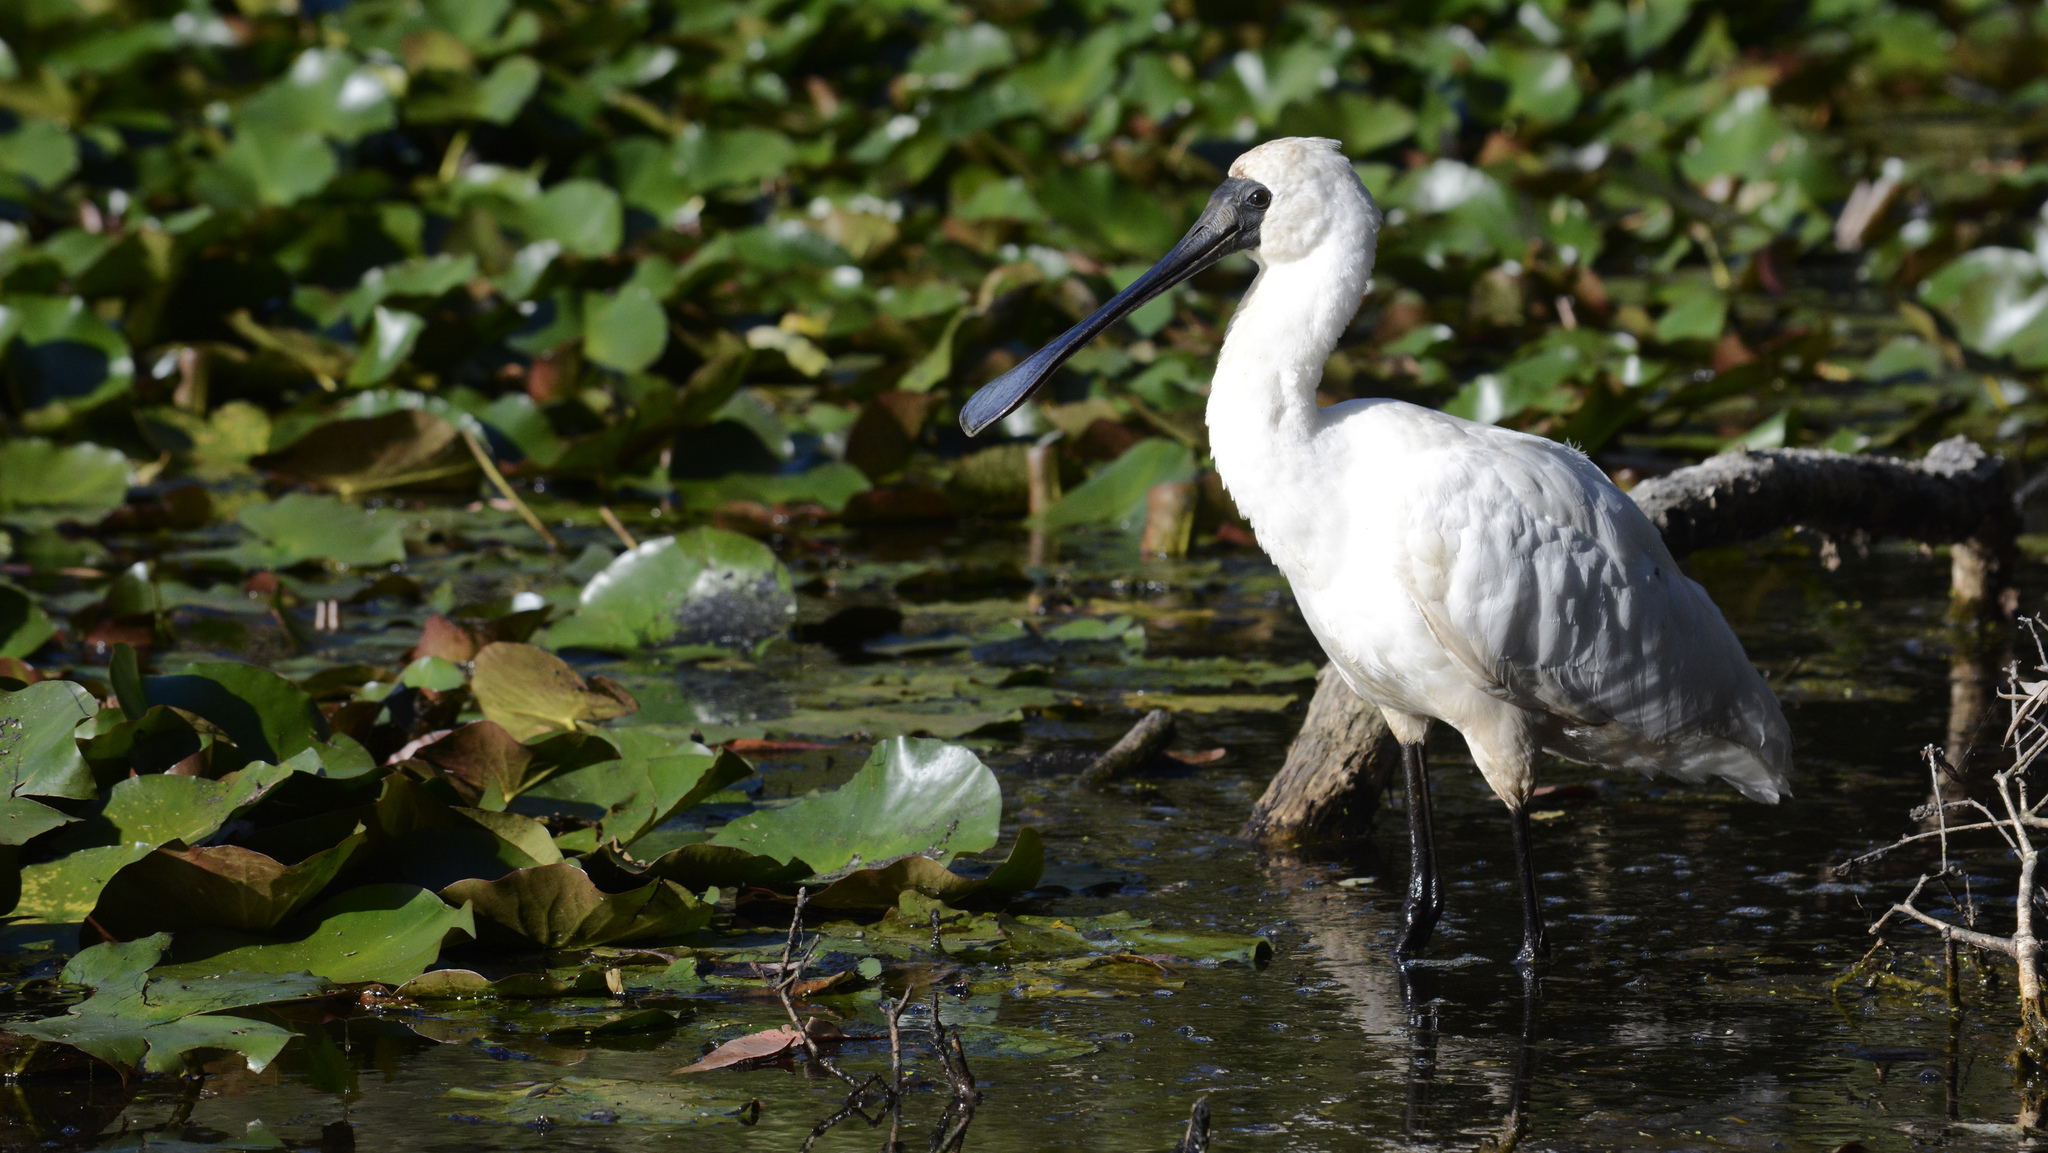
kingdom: Animalia
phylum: Chordata
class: Aves
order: Pelecaniformes
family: Threskiornithidae
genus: Platalea
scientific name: Platalea regia
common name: Royal spoonbill
